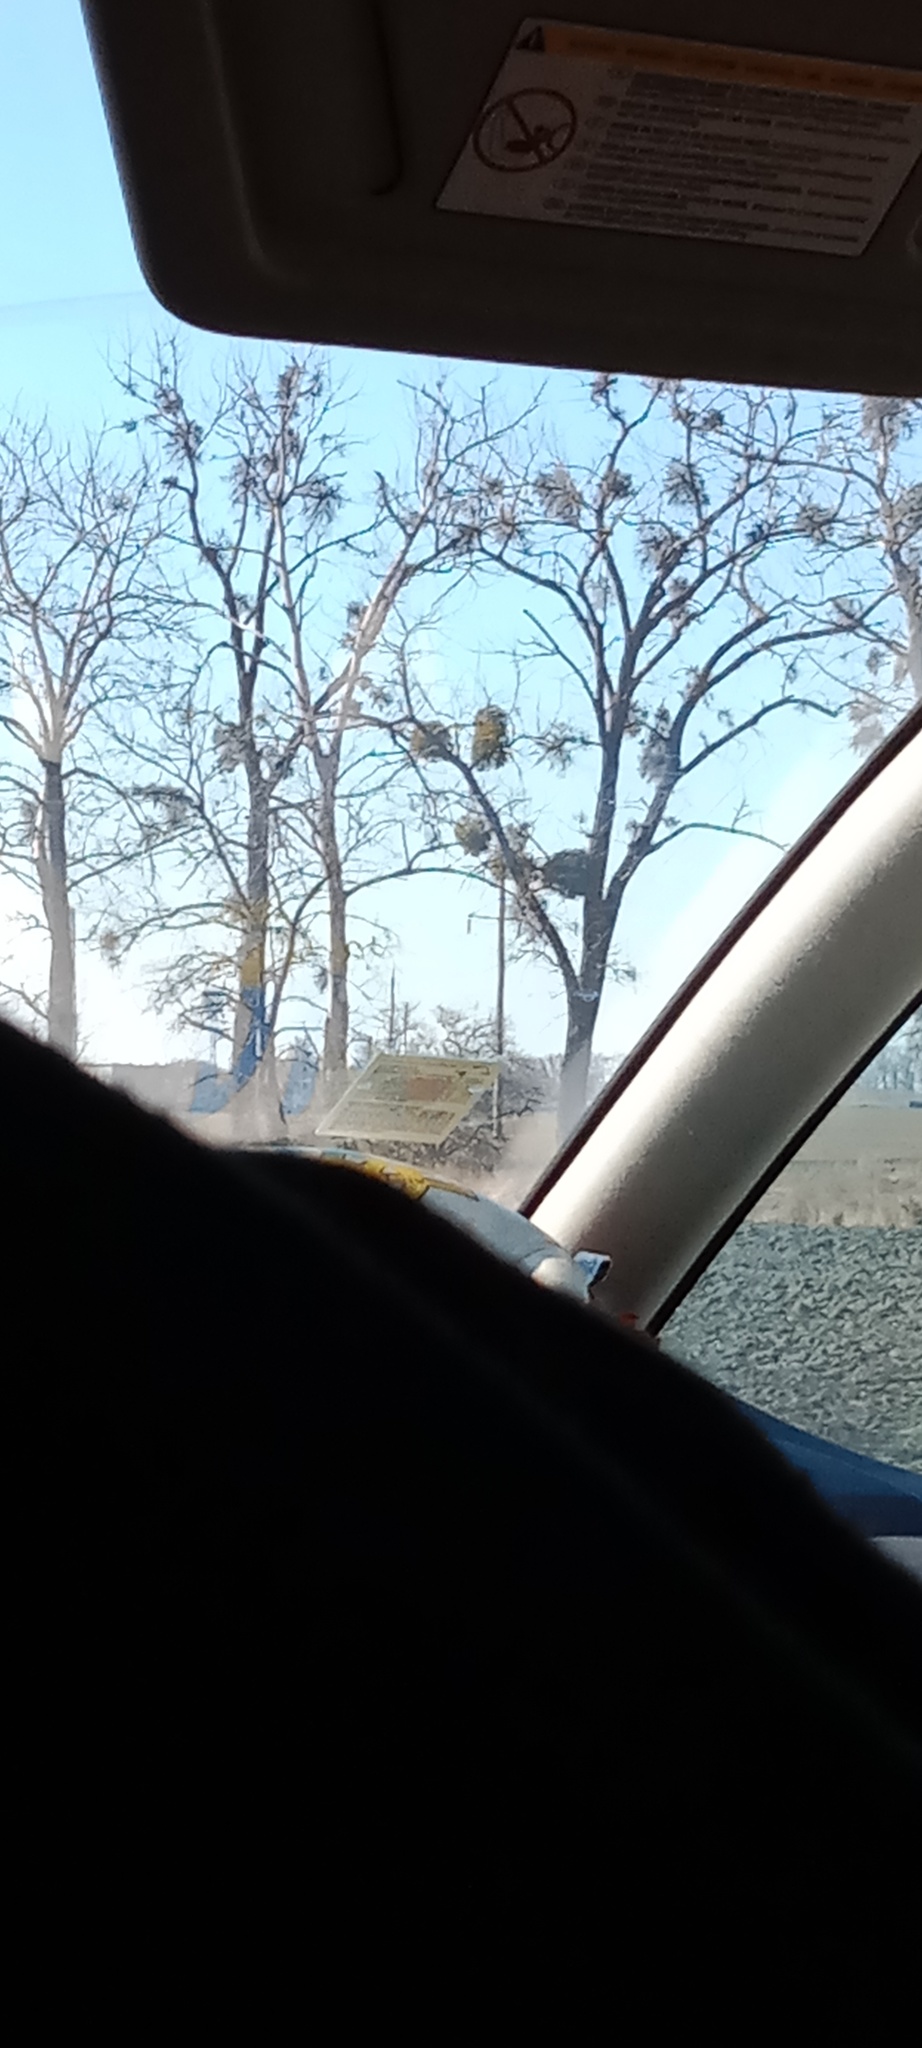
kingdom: Plantae
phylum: Tracheophyta
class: Magnoliopsida
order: Santalales
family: Viscaceae
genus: Viscum
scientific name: Viscum album
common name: Mistletoe
